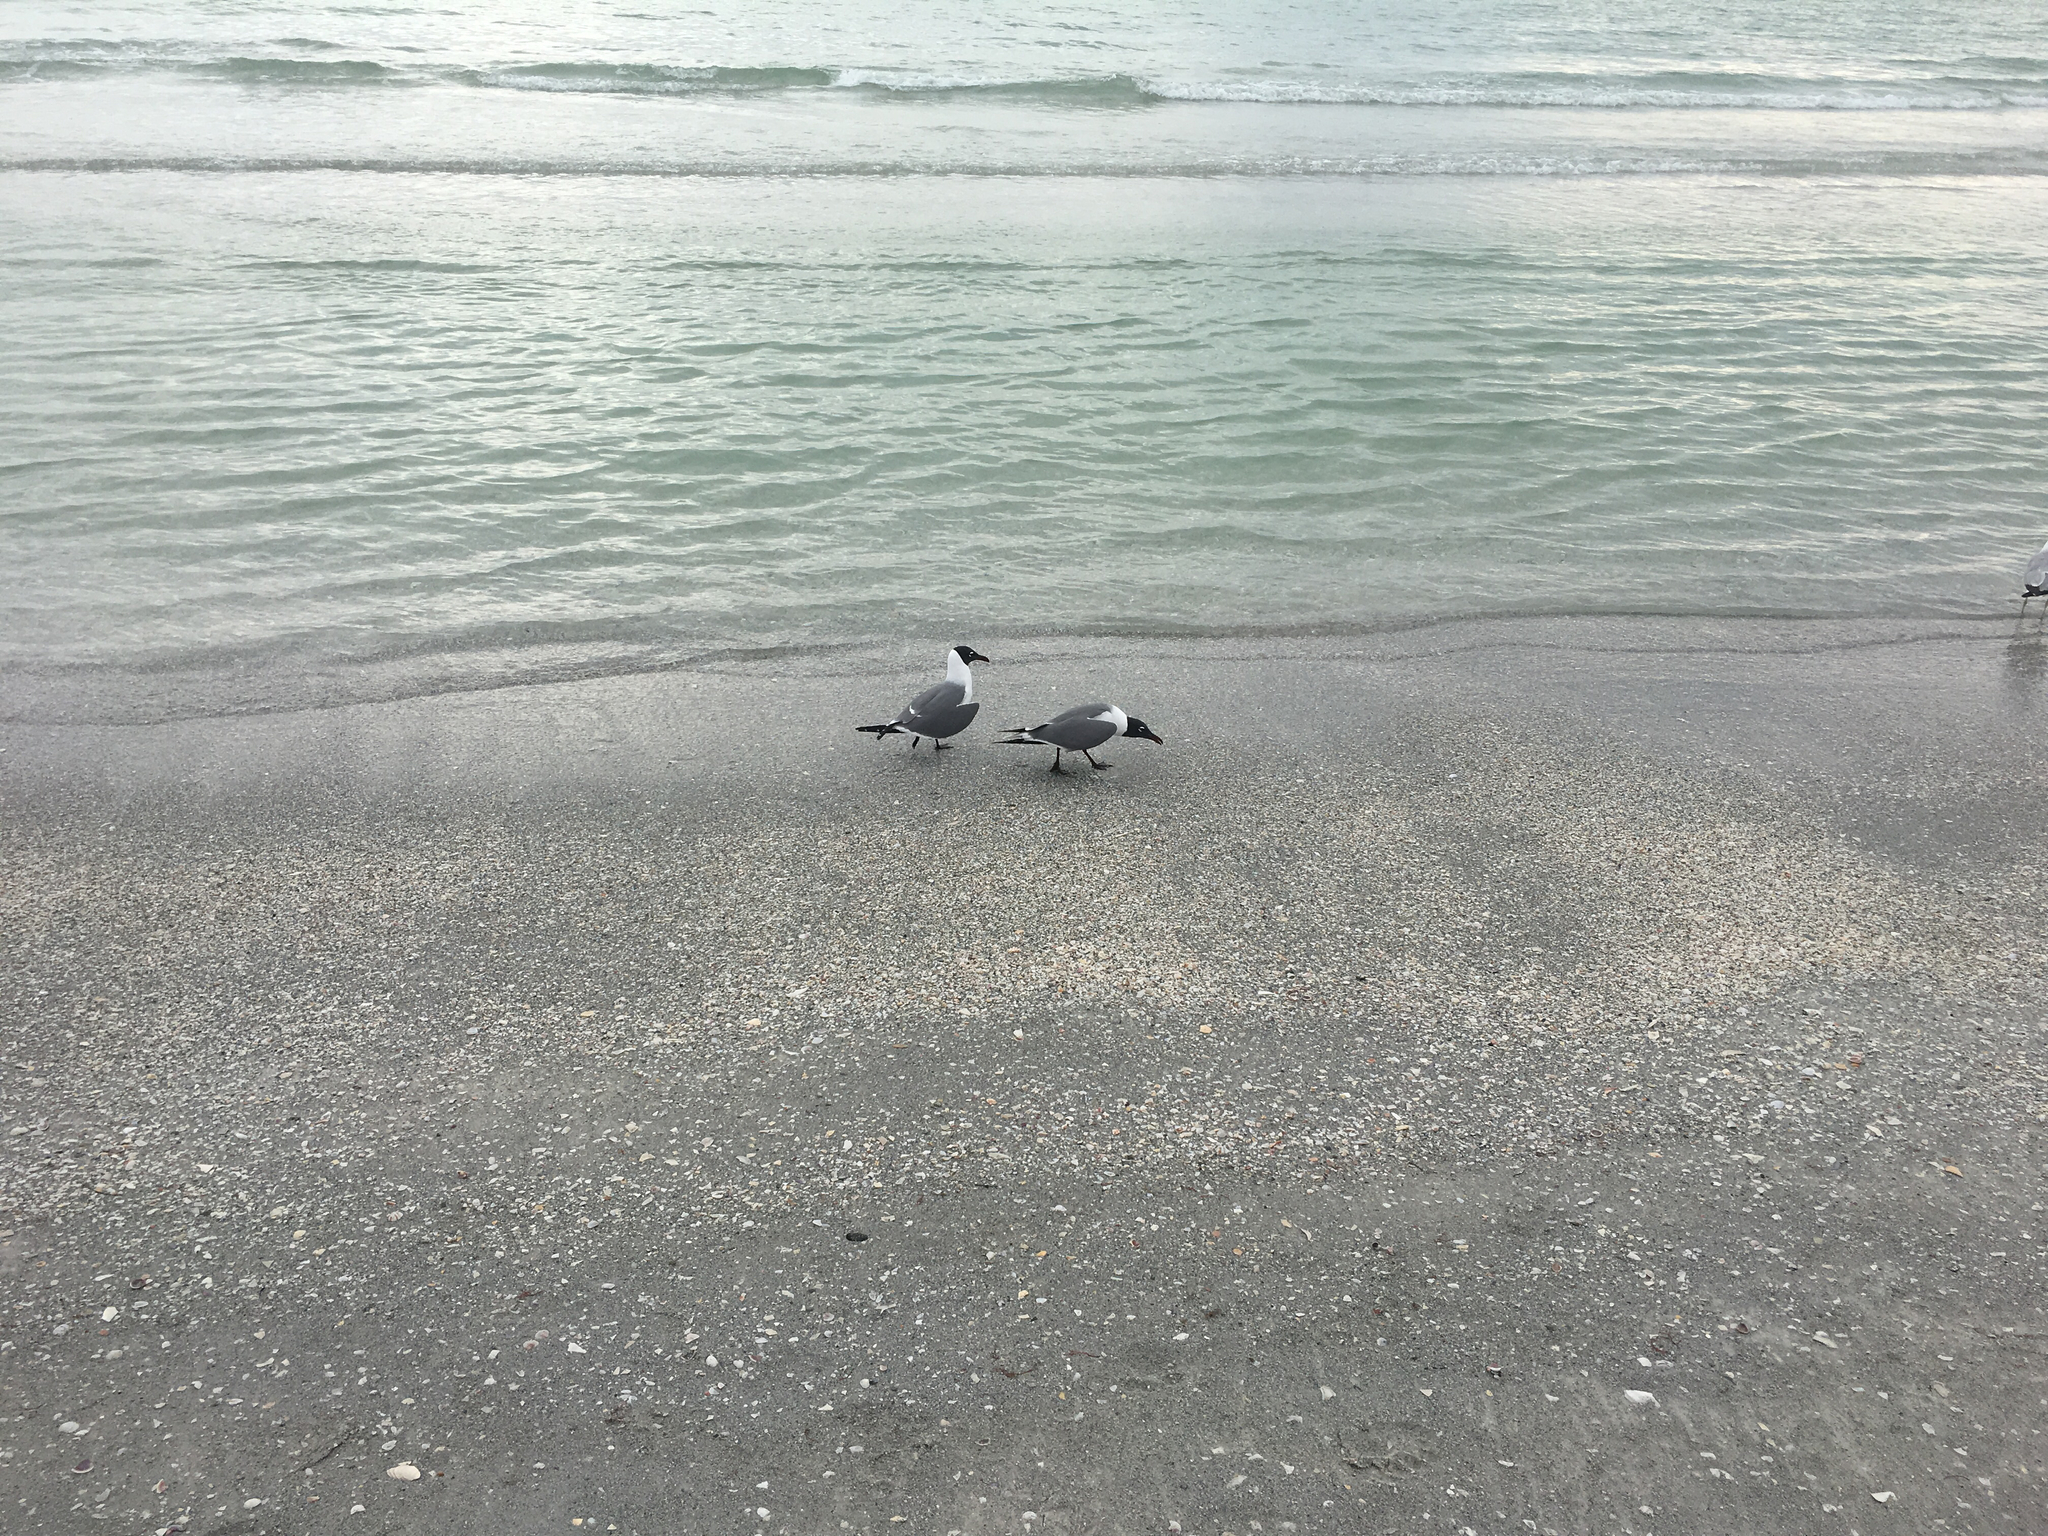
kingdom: Animalia
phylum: Chordata
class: Aves
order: Charadriiformes
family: Laridae
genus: Leucophaeus
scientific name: Leucophaeus atricilla
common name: Laughing gull
